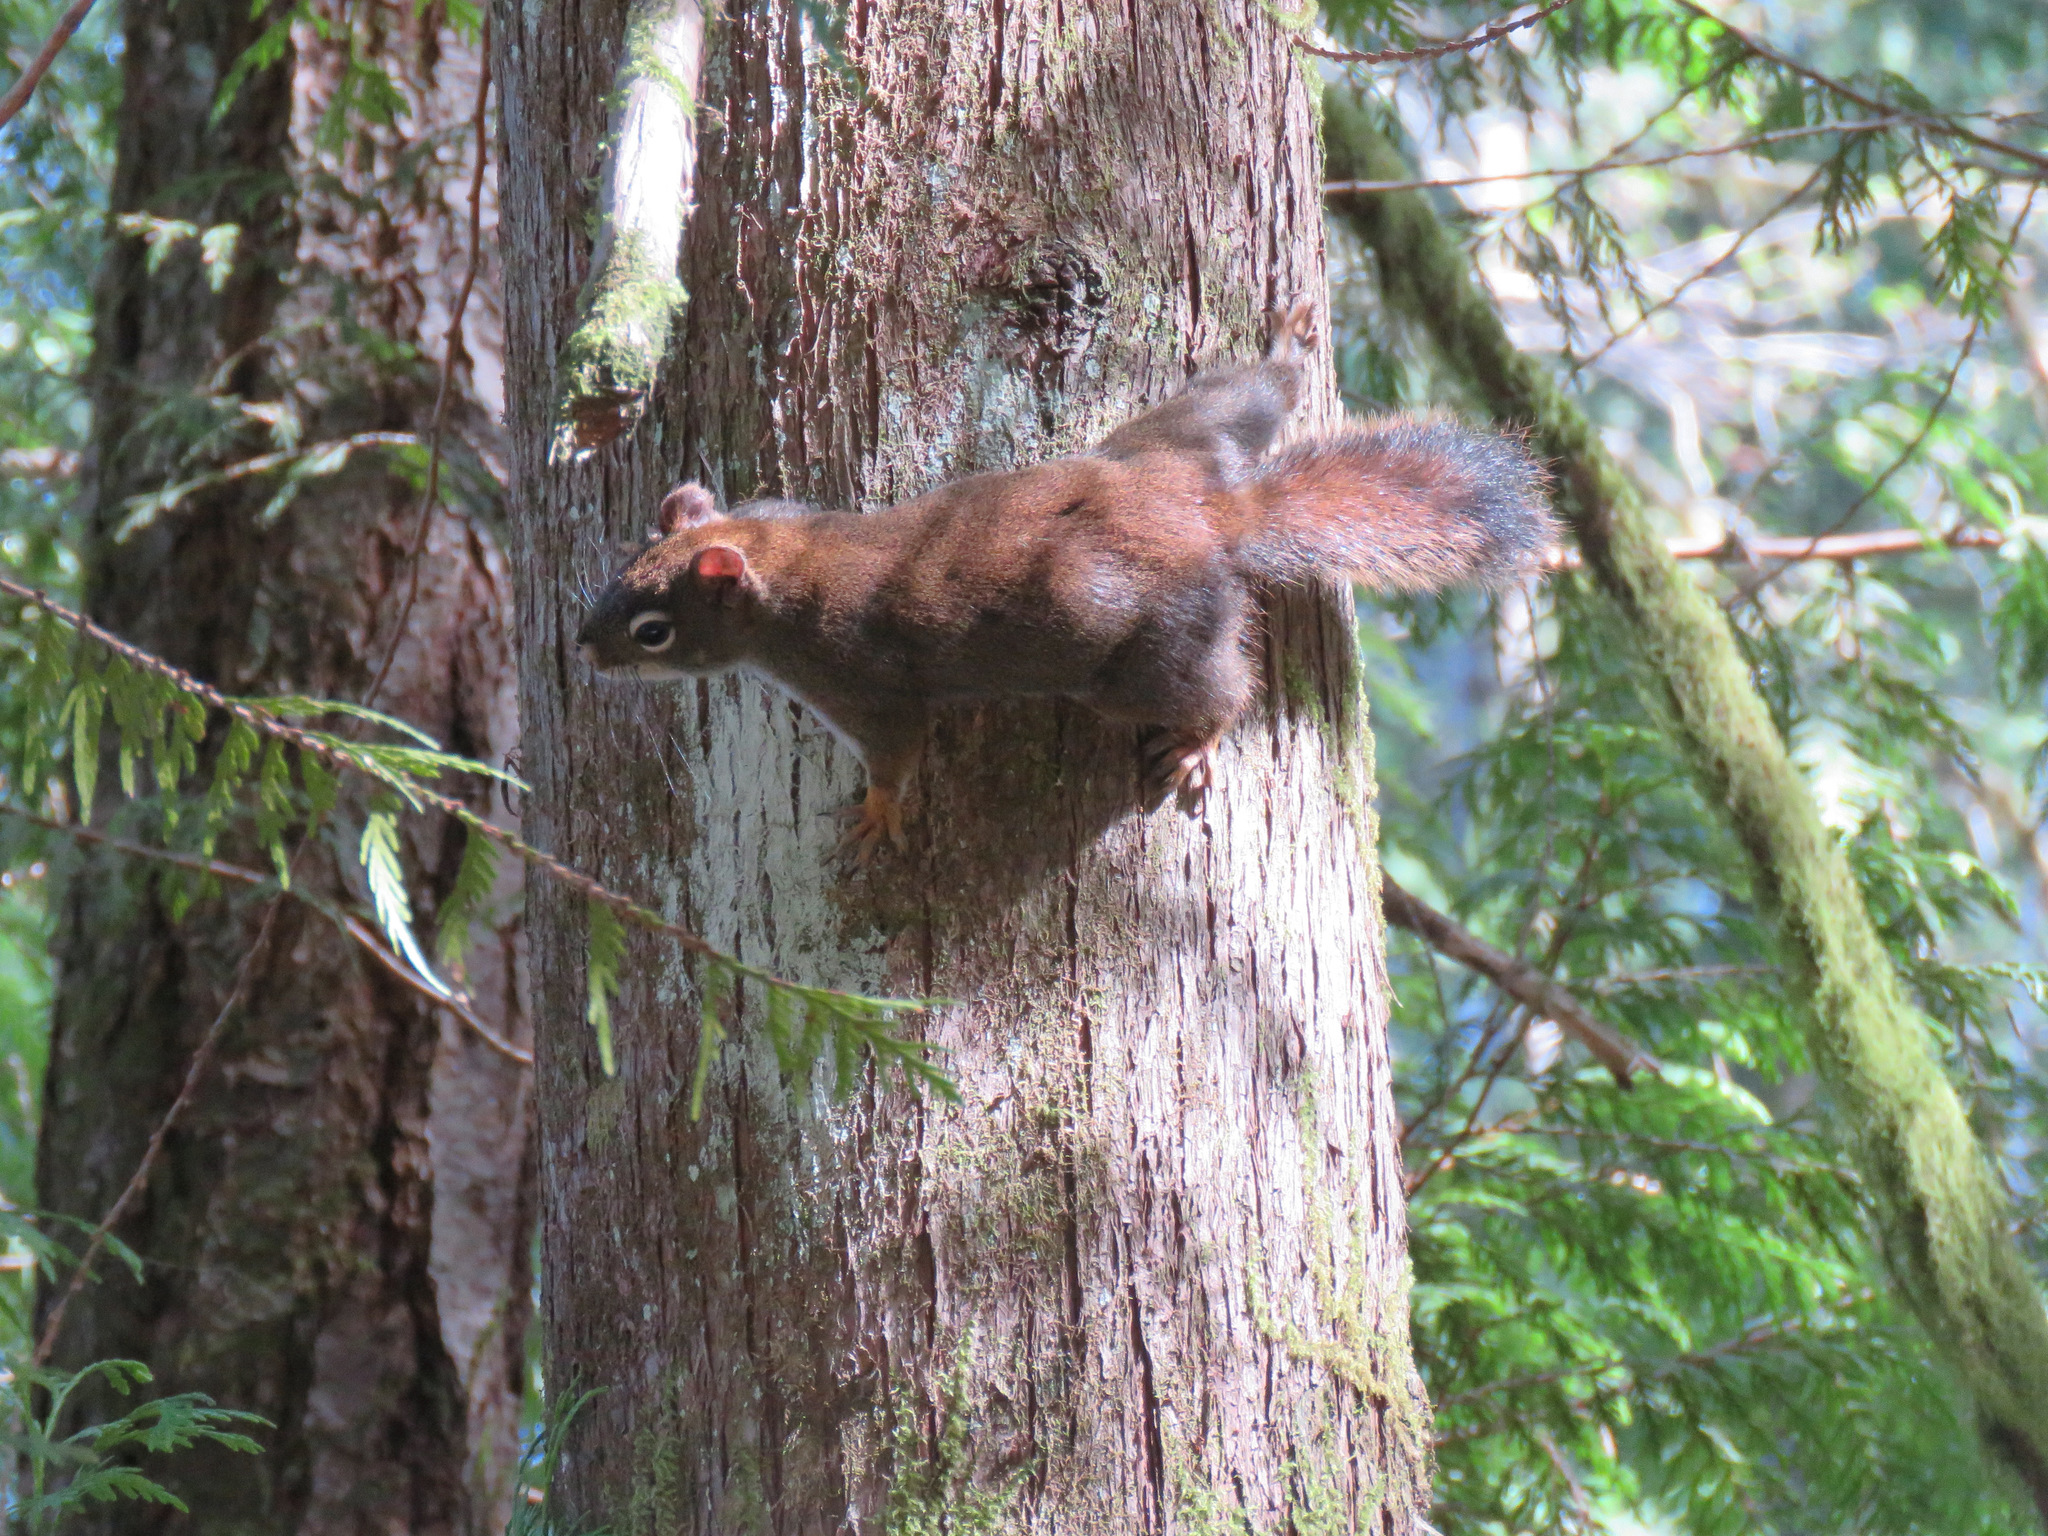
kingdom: Animalia
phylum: Chordata
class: Mammalia
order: Rodentia
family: Sciuridae
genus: Tamiasciurus
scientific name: Tamiasciurus hudsonicus
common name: Red squirrel
